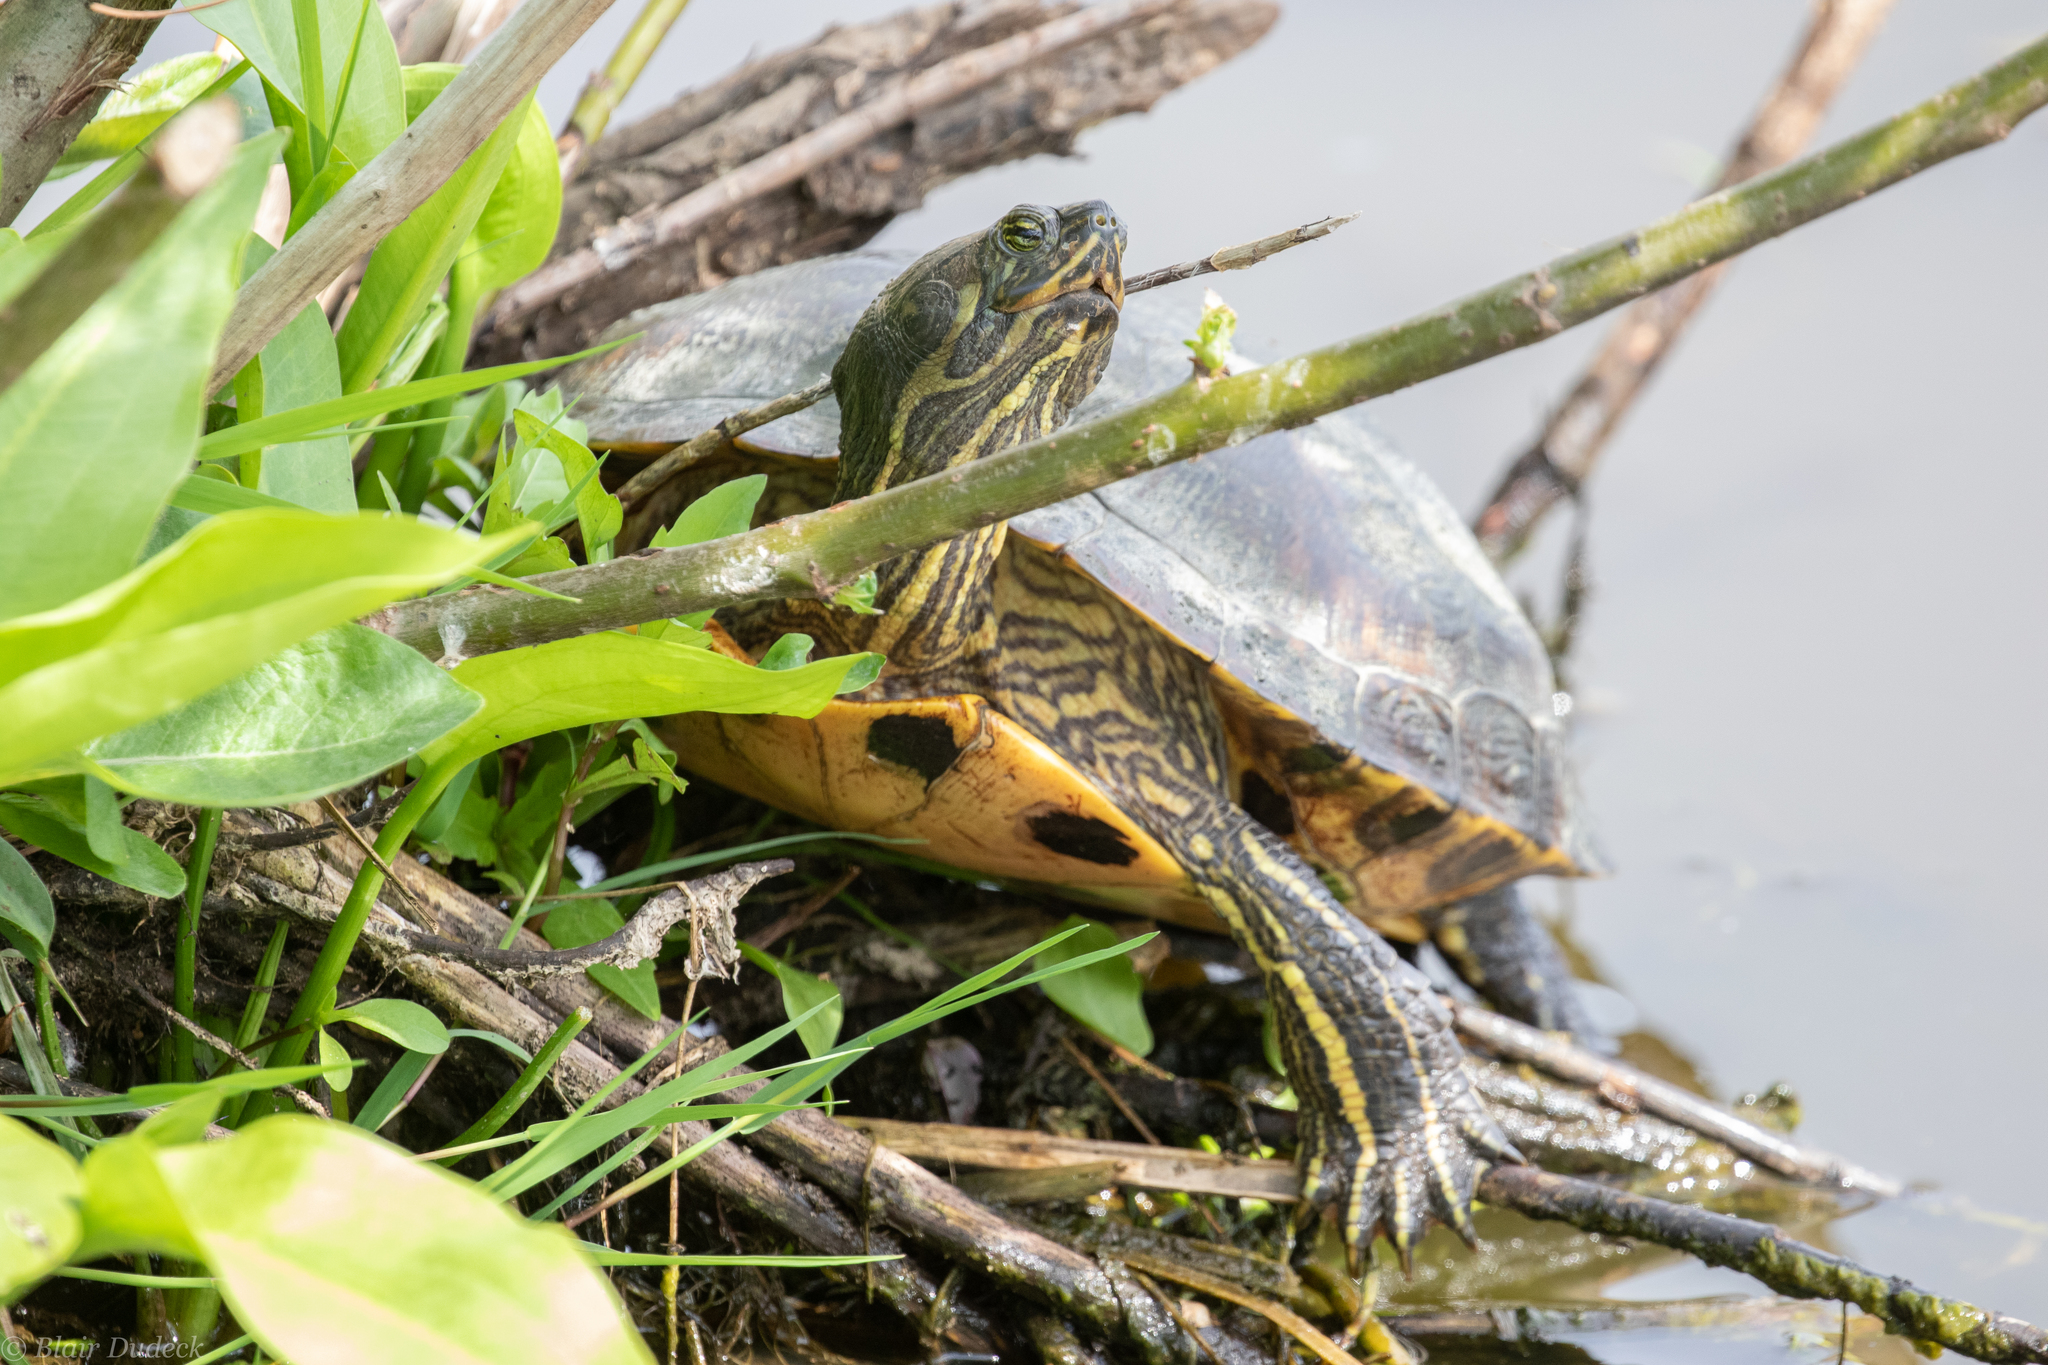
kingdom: Animalia
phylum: Chordata
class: Testudines
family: Emydidae
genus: Trachemys
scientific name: Trachemys scripta
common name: Slider
